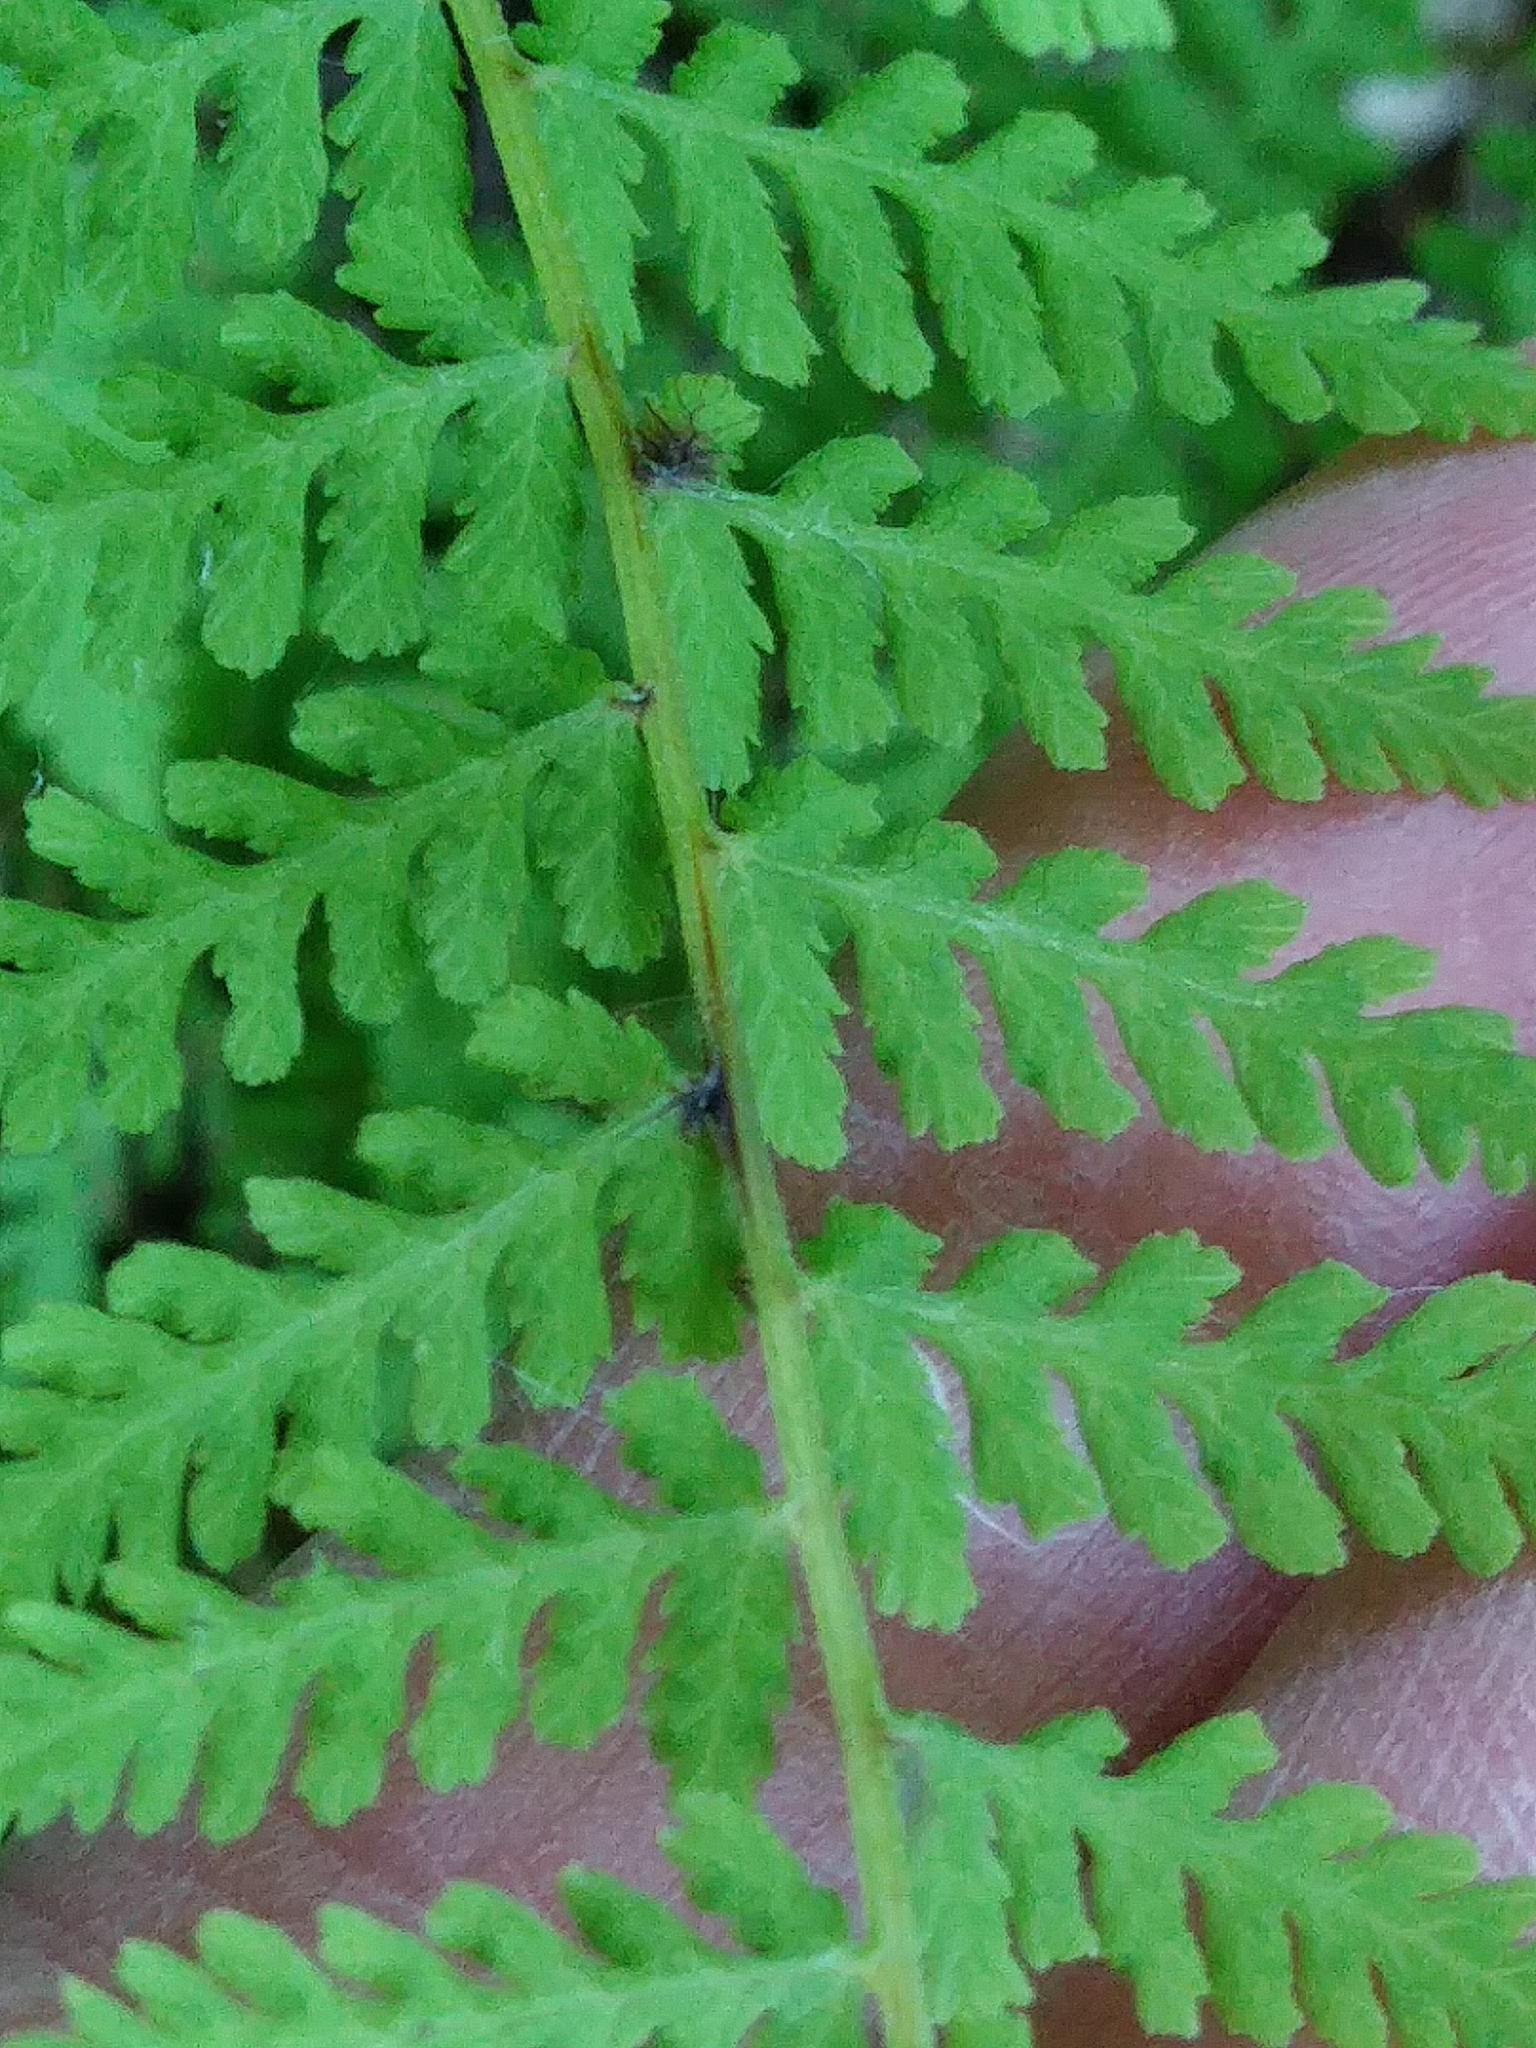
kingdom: Plantae
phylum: Tracheophyta
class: Polypodiopsida
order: Polypodiales
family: Cystopteridaceae
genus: Cystopteris
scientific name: Cystopteris bulbifera
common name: Bulblet bladder fern
